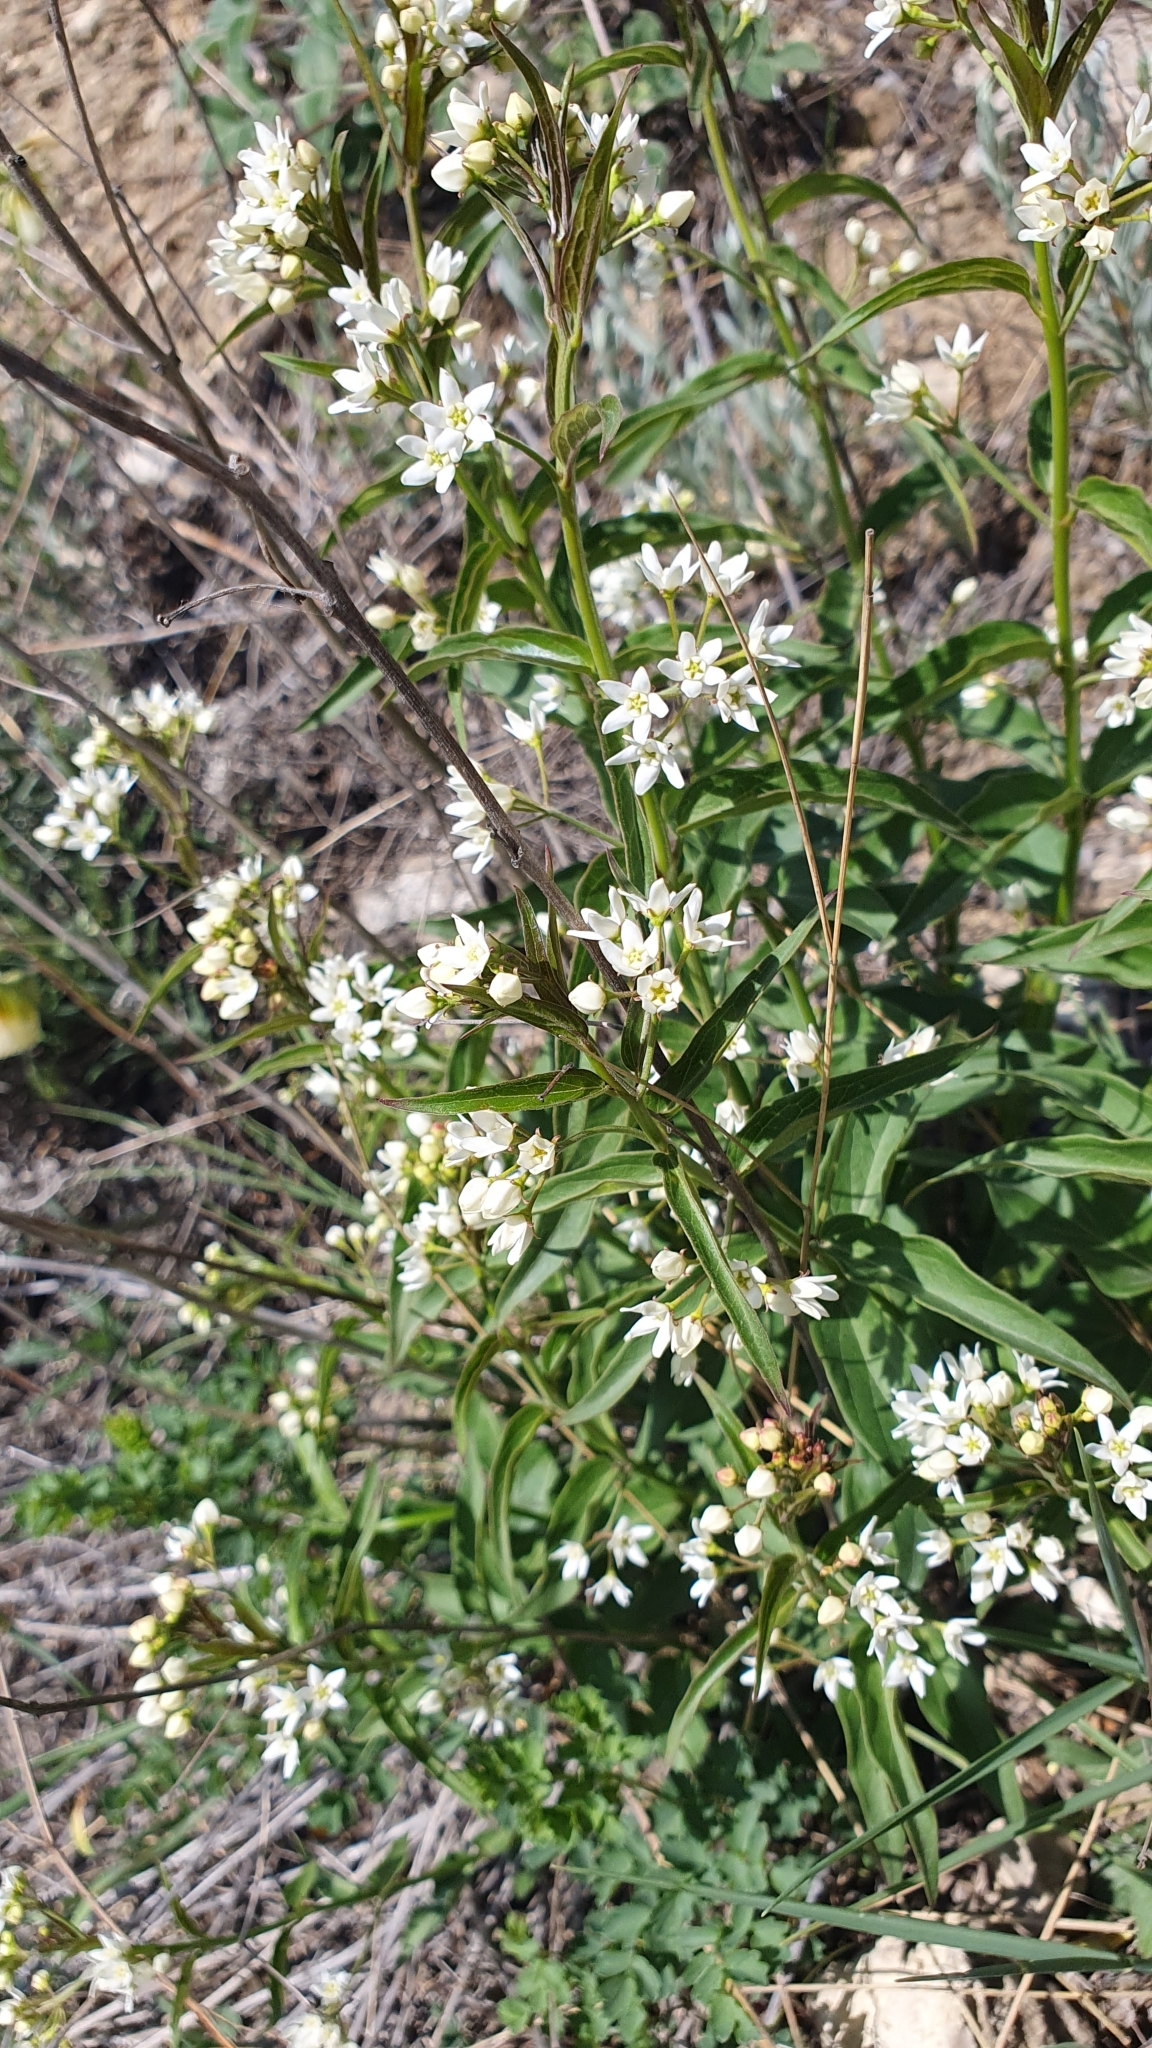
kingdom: Plantae
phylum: Tracheophyta
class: Magnoliopsida
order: Gentianales
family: Apocynaceae
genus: Vincetoxicum
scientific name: Vincetoxicum hirundinaria
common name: White swallowwort
